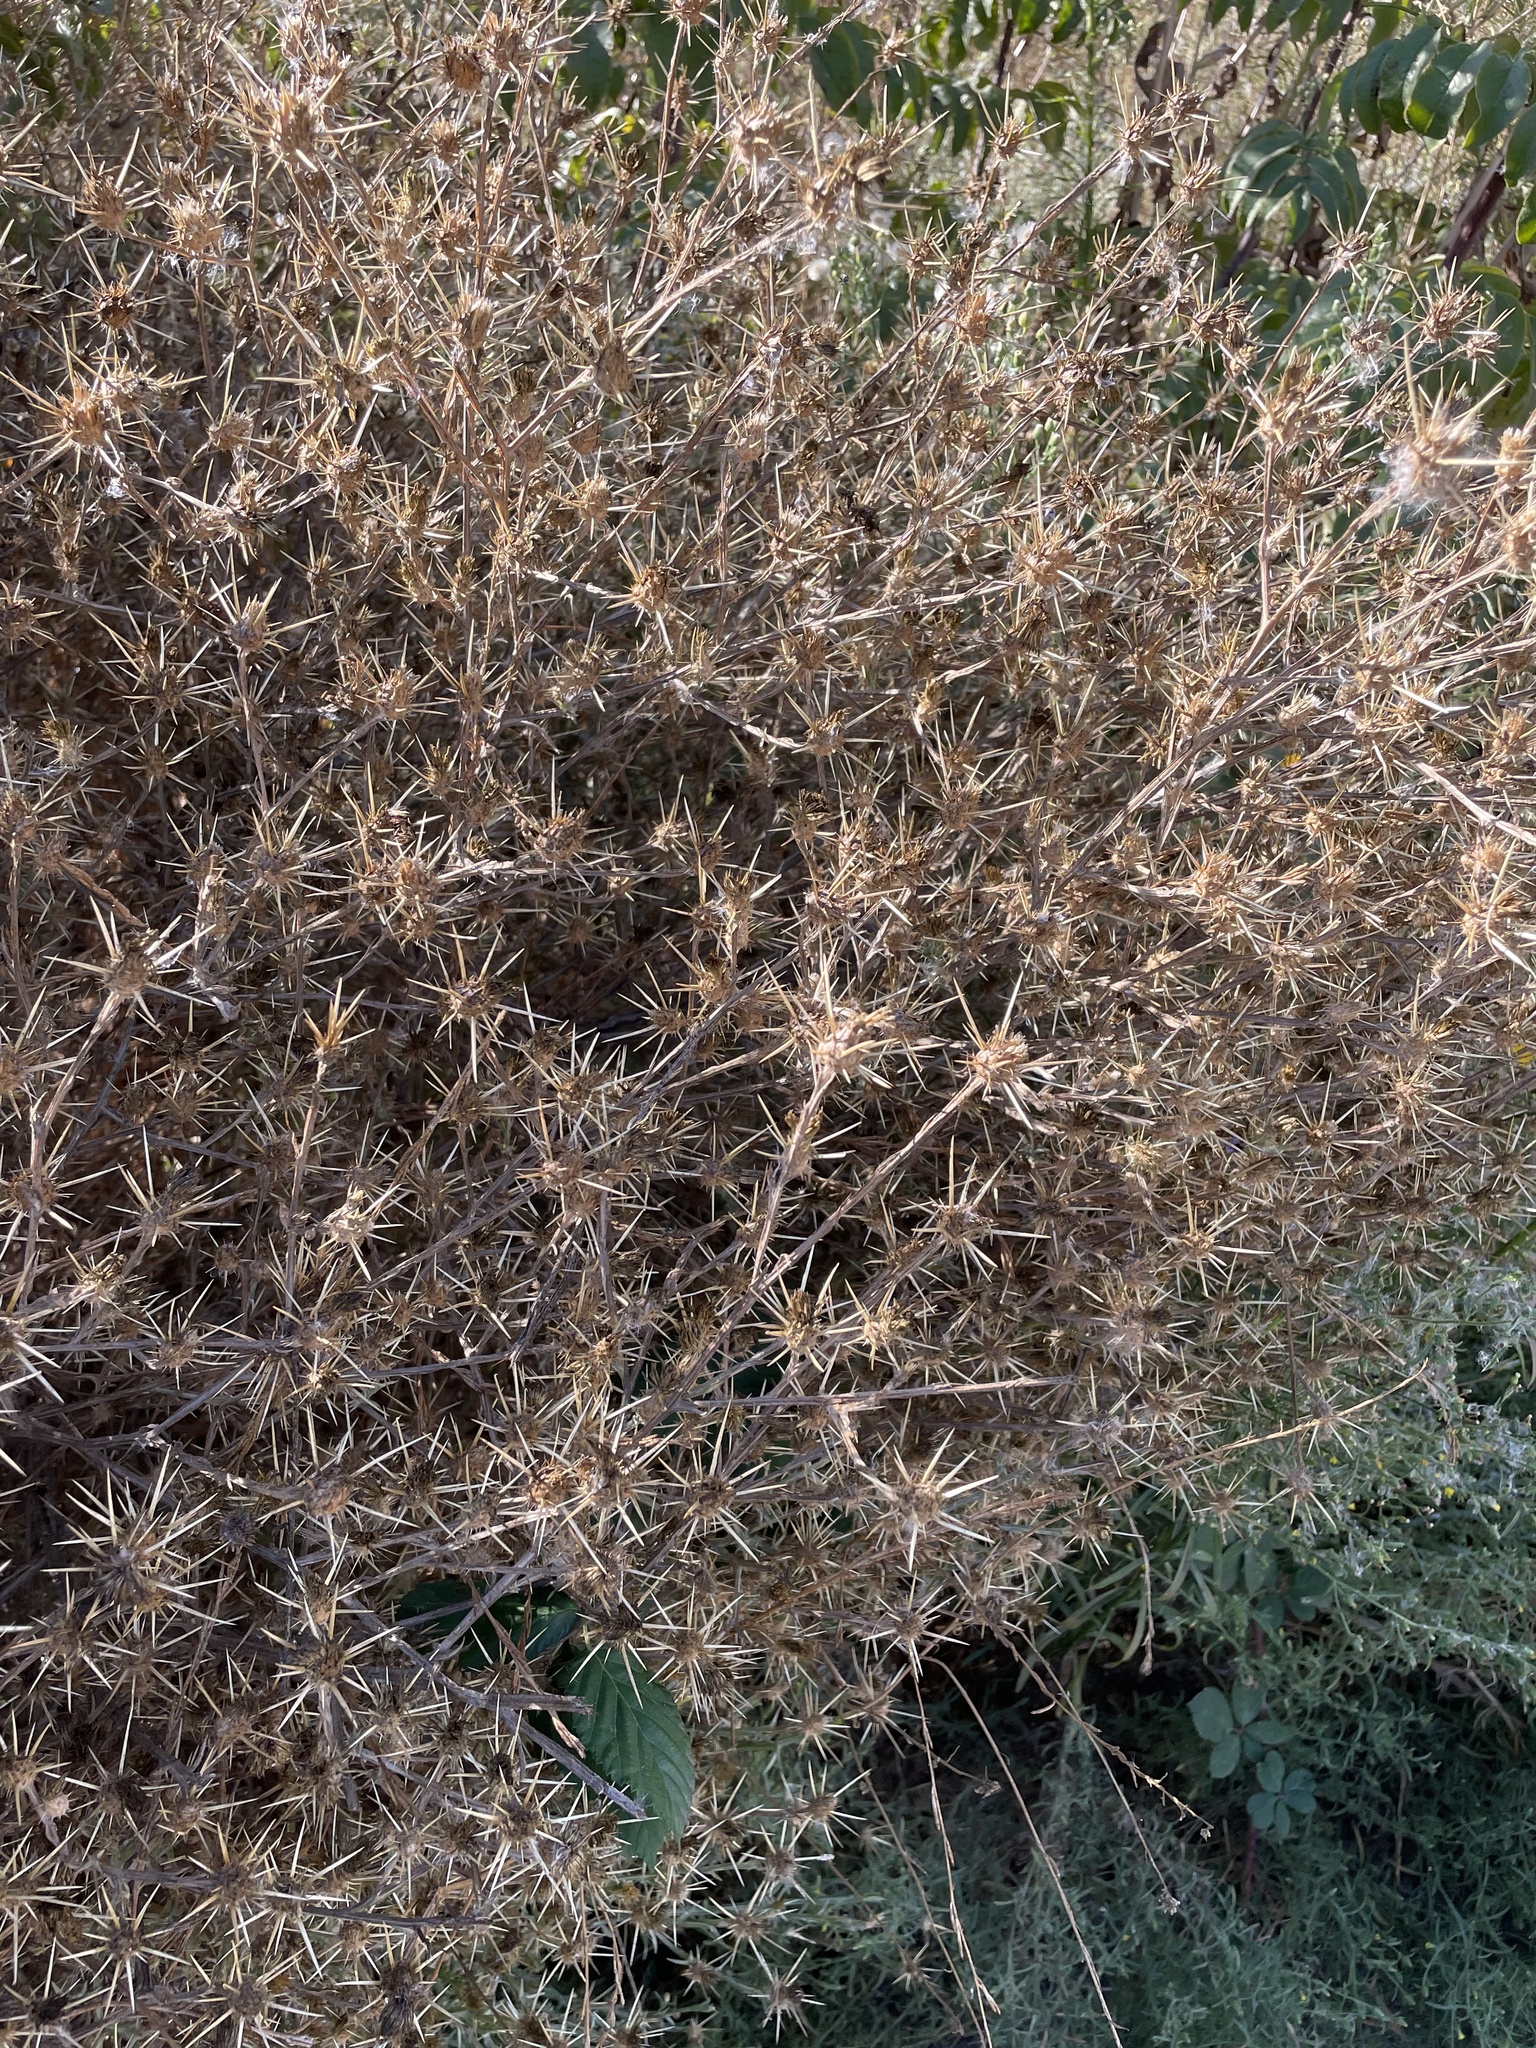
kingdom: Plantae
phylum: Tracheophyta
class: Magnoliopsida
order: Asterales
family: Asteraceae
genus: Centaurea
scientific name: Centaurea solstitialis
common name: Yellow star-thistle
